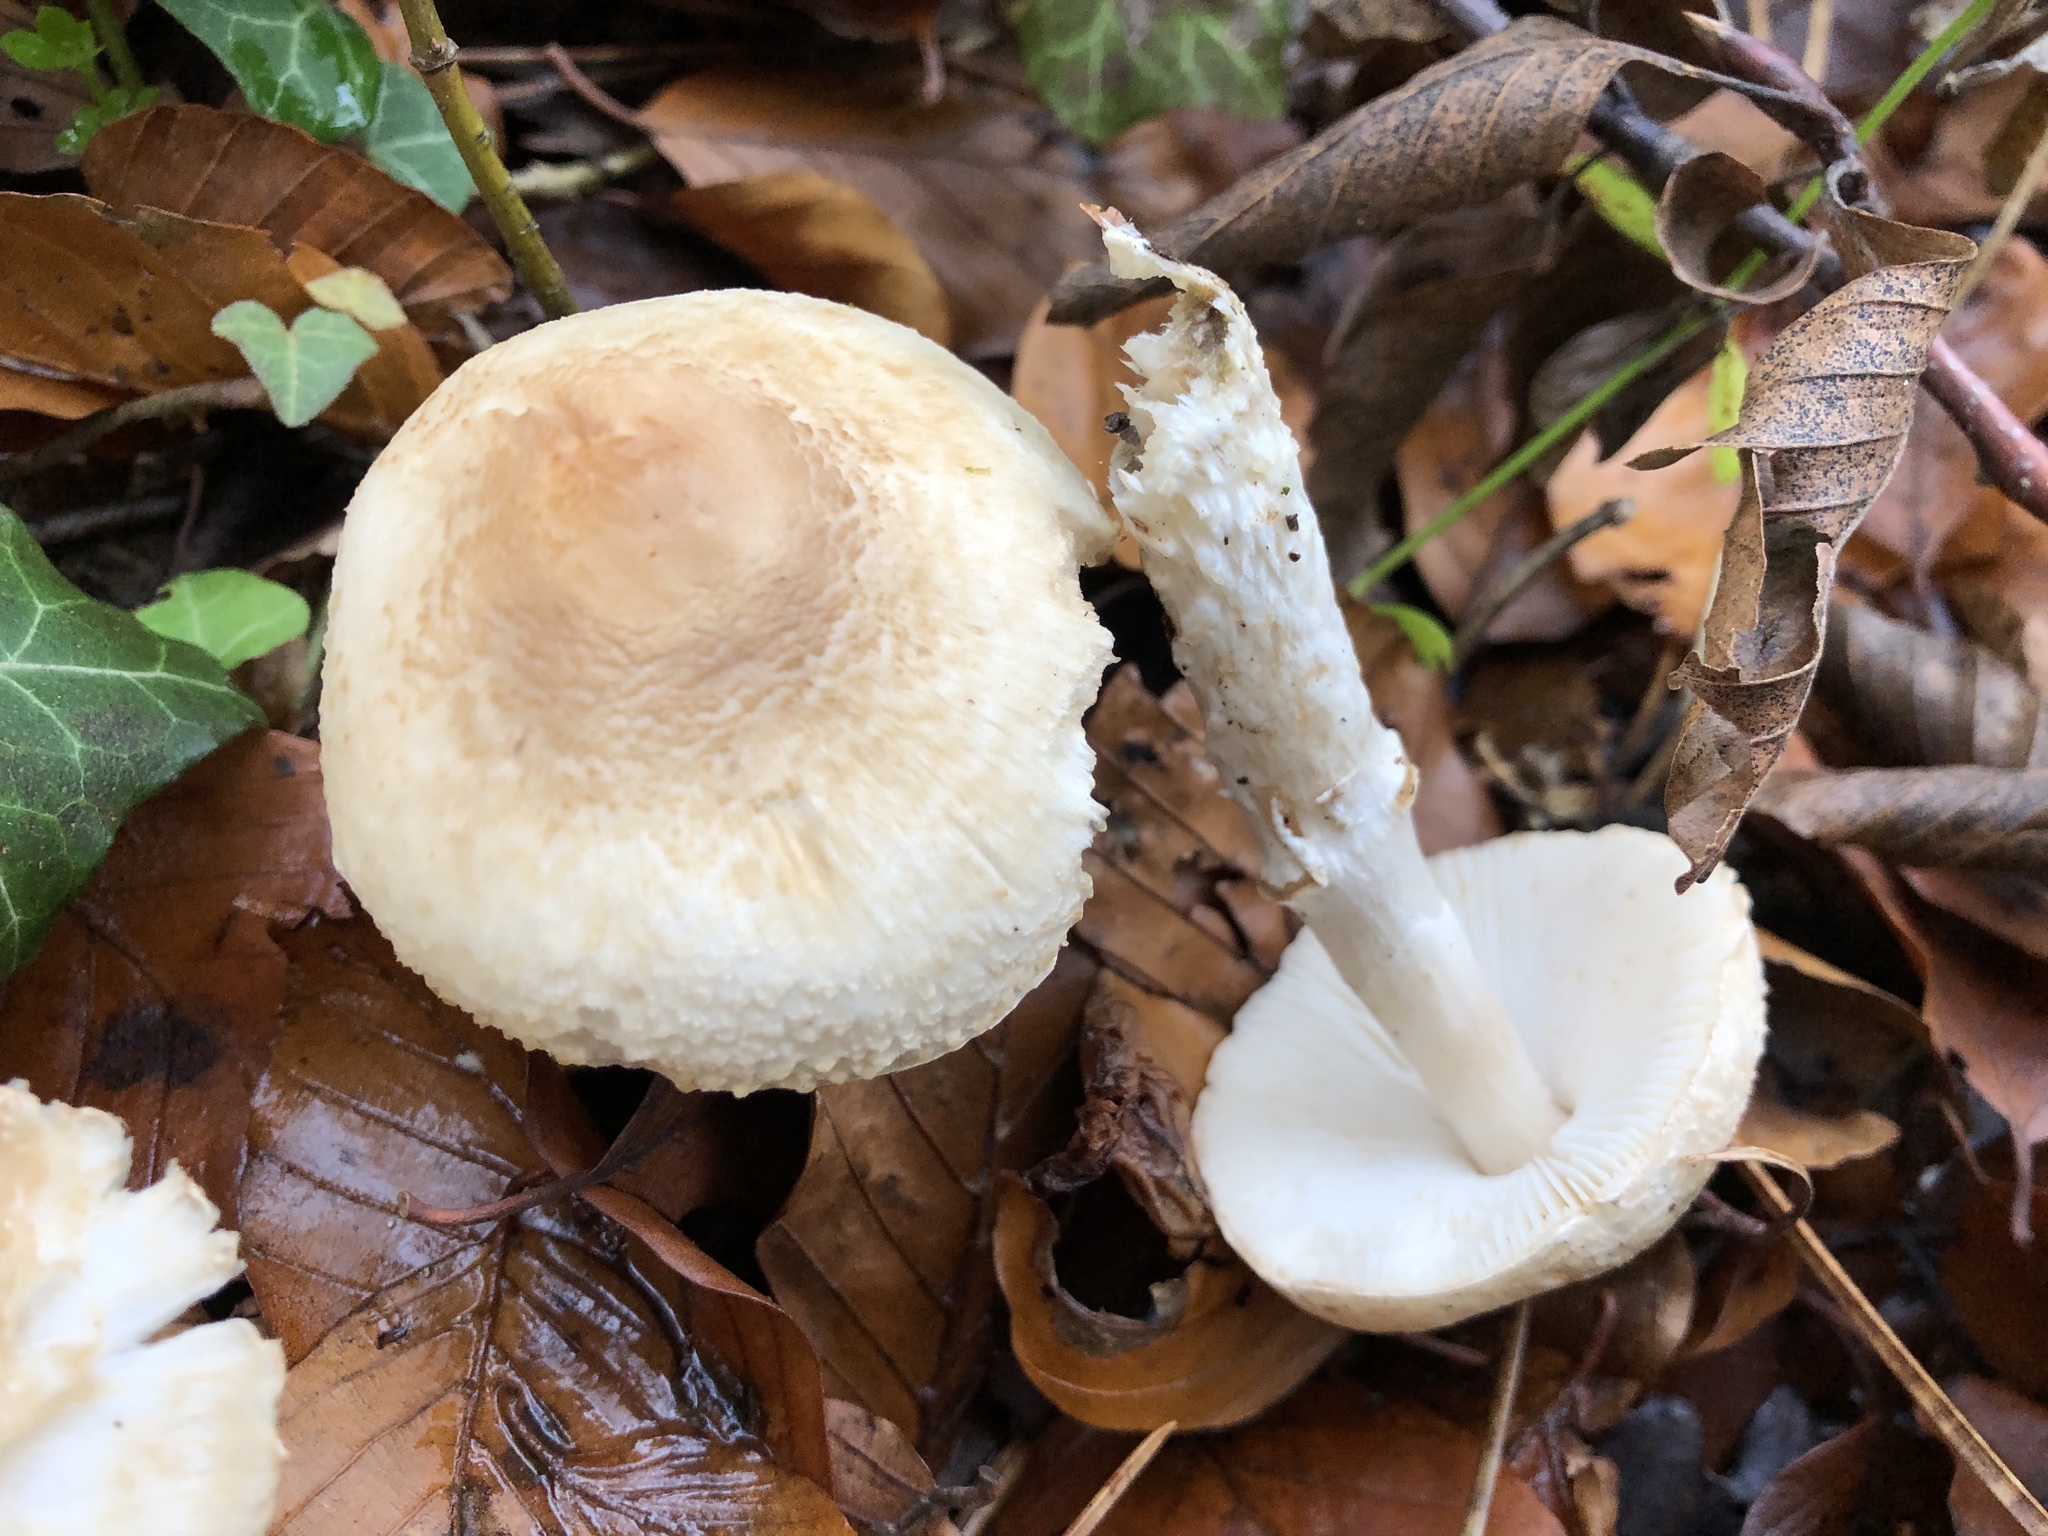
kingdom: Fungi
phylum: Basidiomycota
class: Agaricomycetes
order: Agaricales
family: Agaricaceae
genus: Lepiota
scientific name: Lepiota ignivolvata
